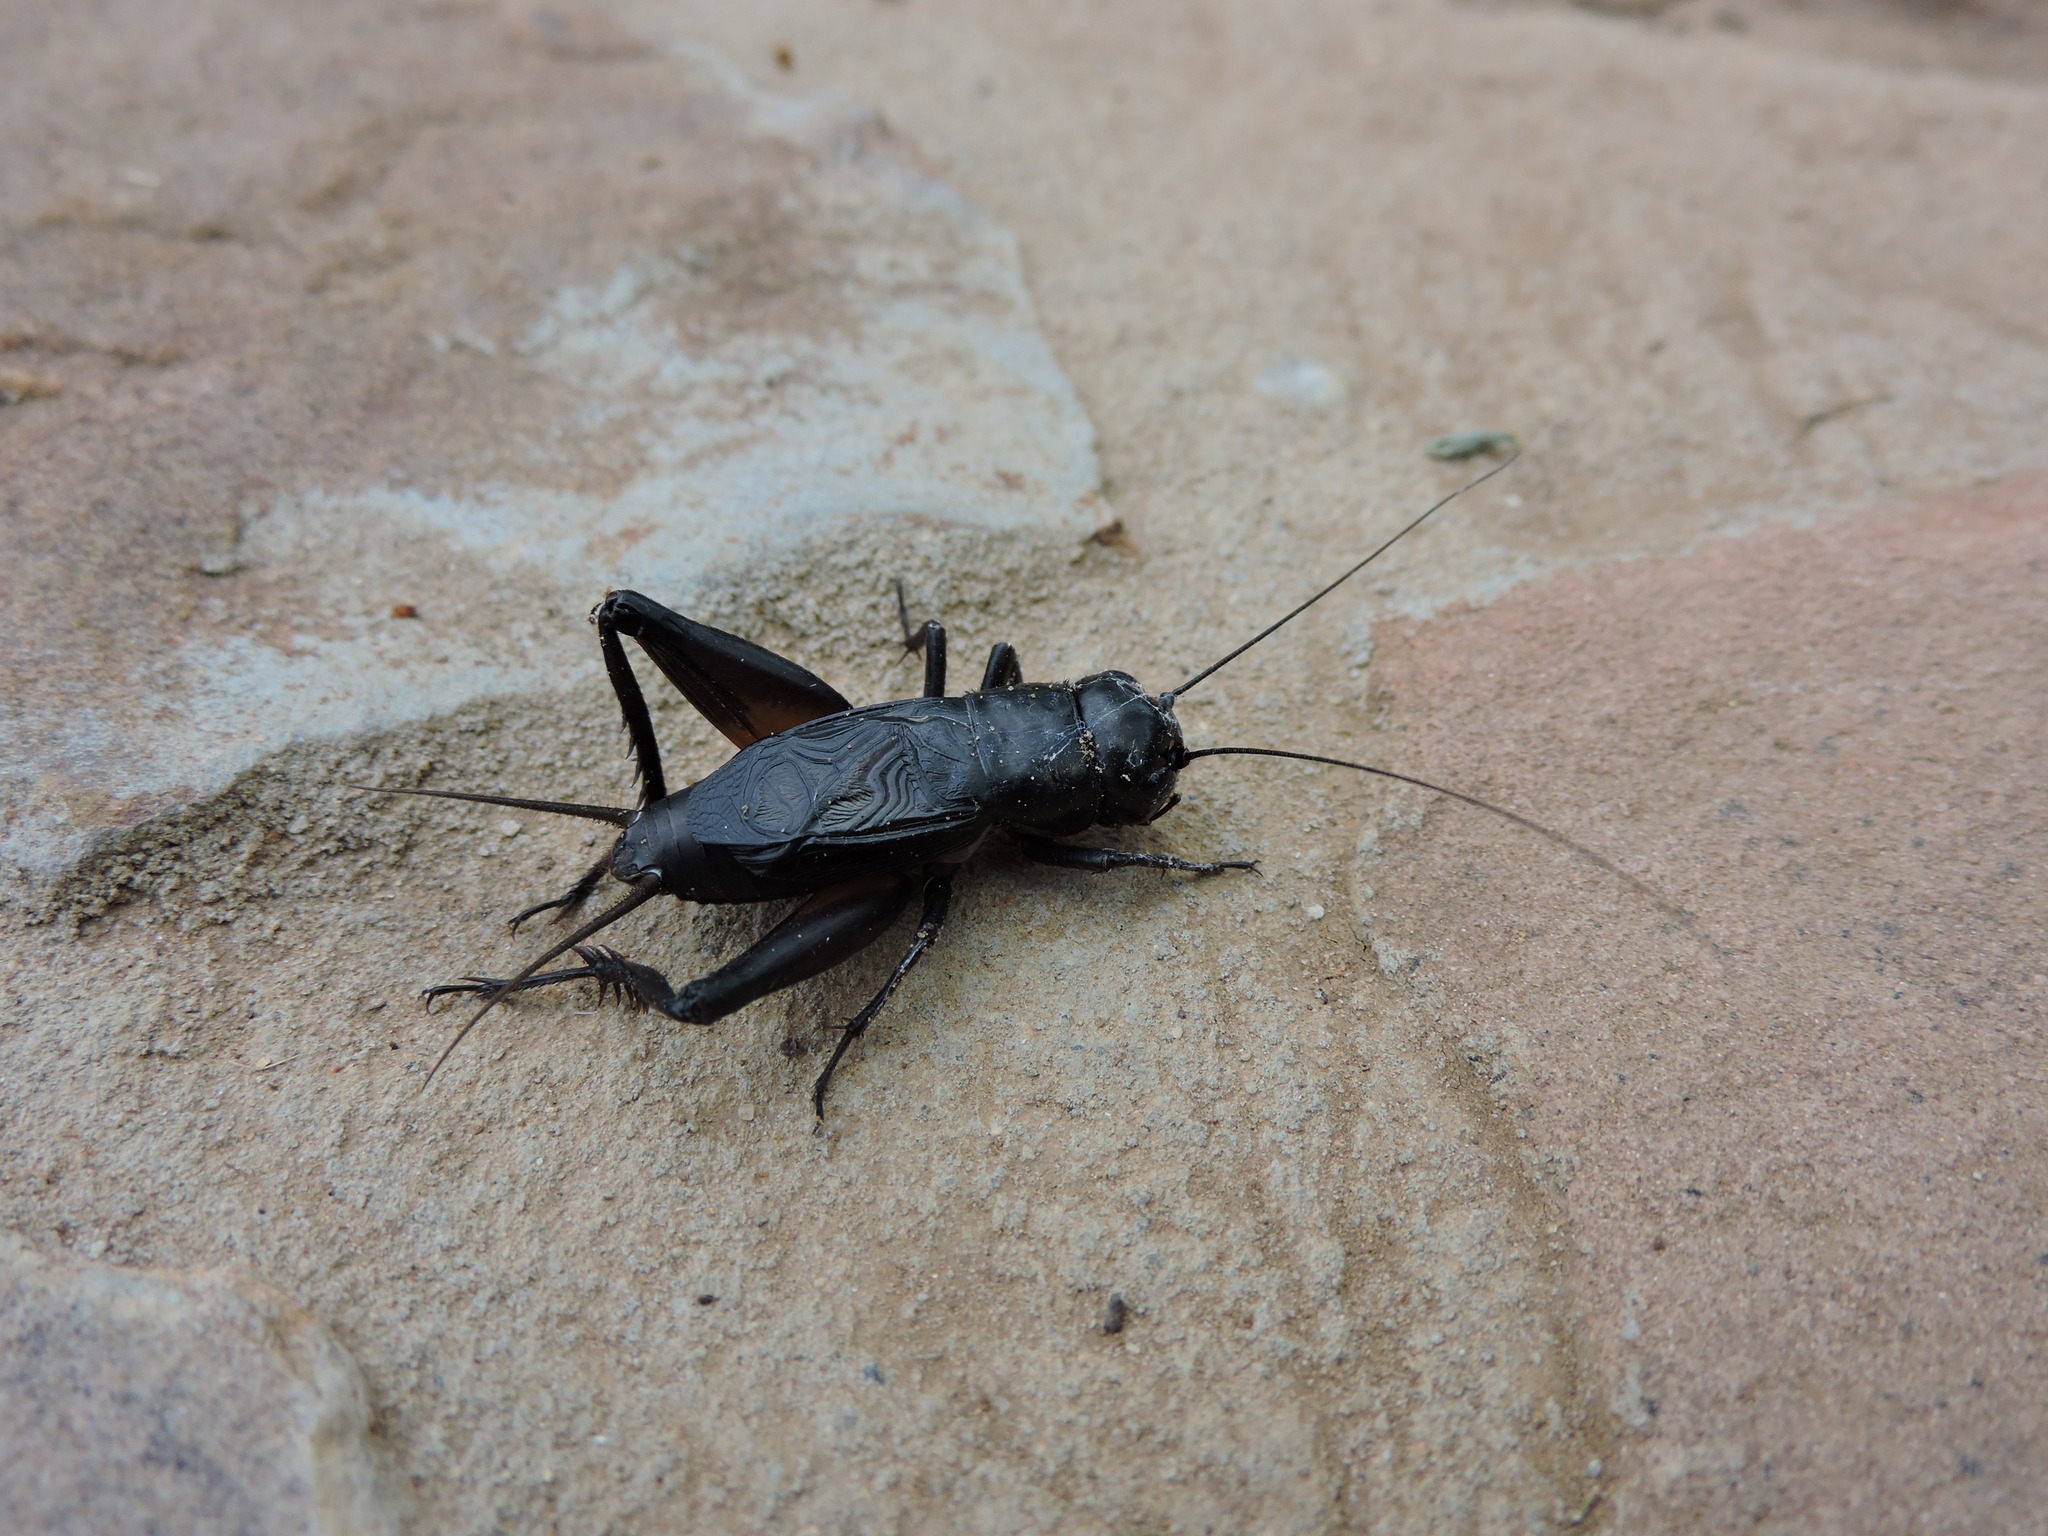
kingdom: Animalia
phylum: Arthropoda
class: Insecta
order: Orthoptera
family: Gryllidae
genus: Gryllus
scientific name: Gryllus texensis
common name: Texas field cricket
